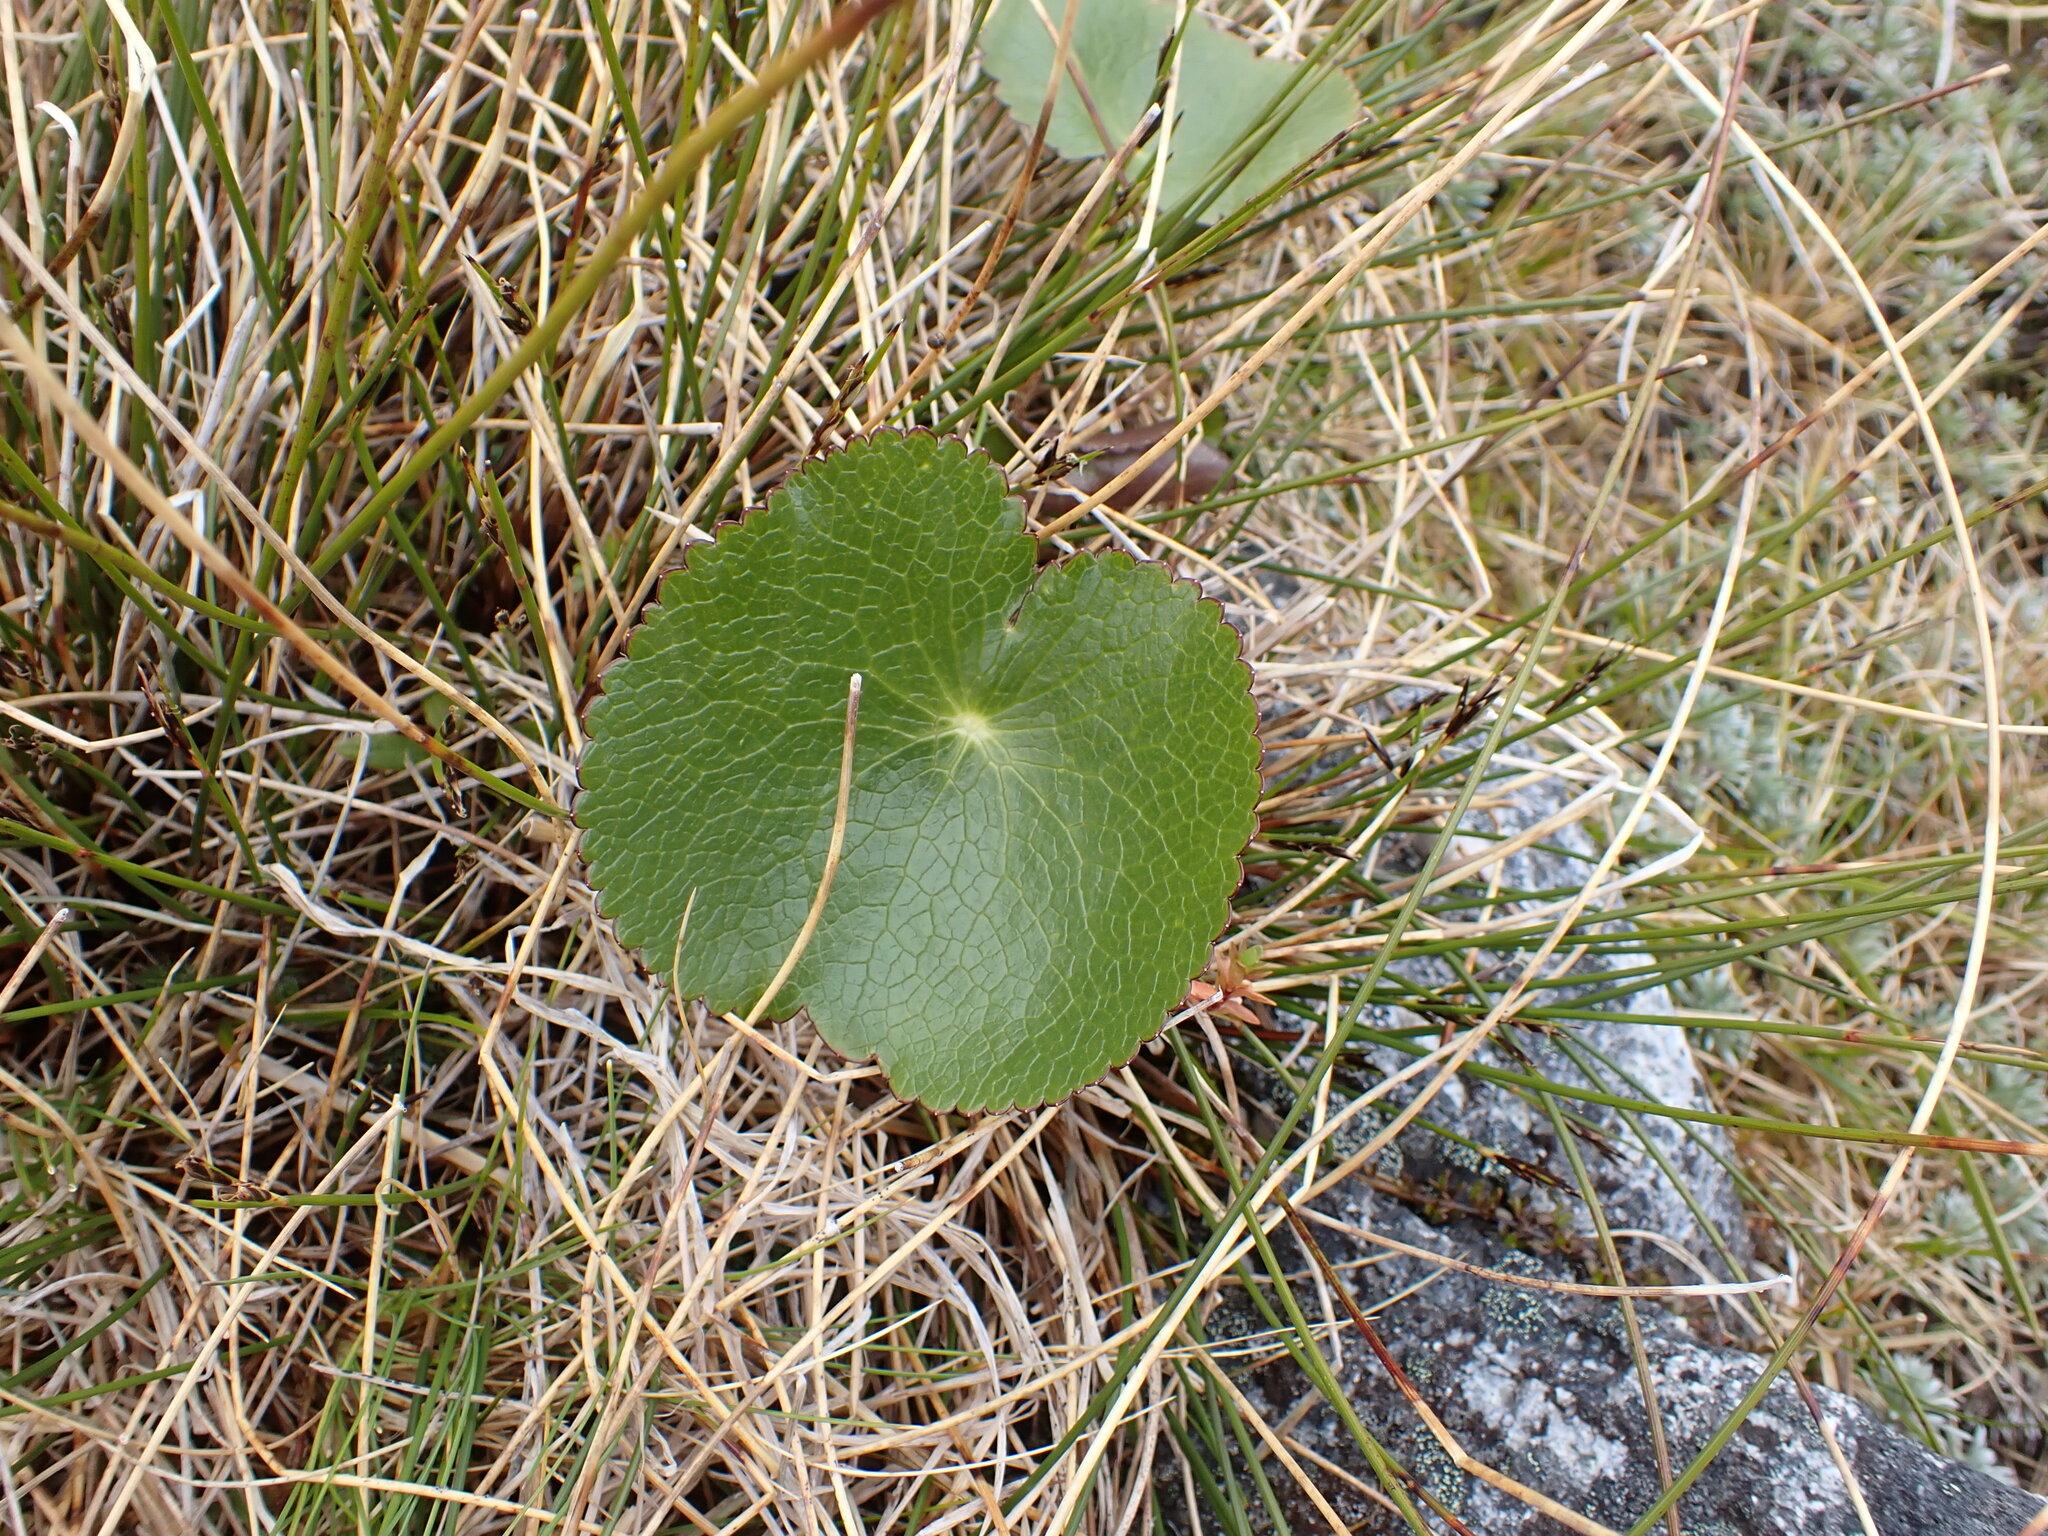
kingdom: Plantae
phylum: Tracheophyta
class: Magnoliopsida
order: Ranunculales
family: Ranunculaceae
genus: Ranunculus
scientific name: Ranunculus lyallii
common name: Mountain-lily
